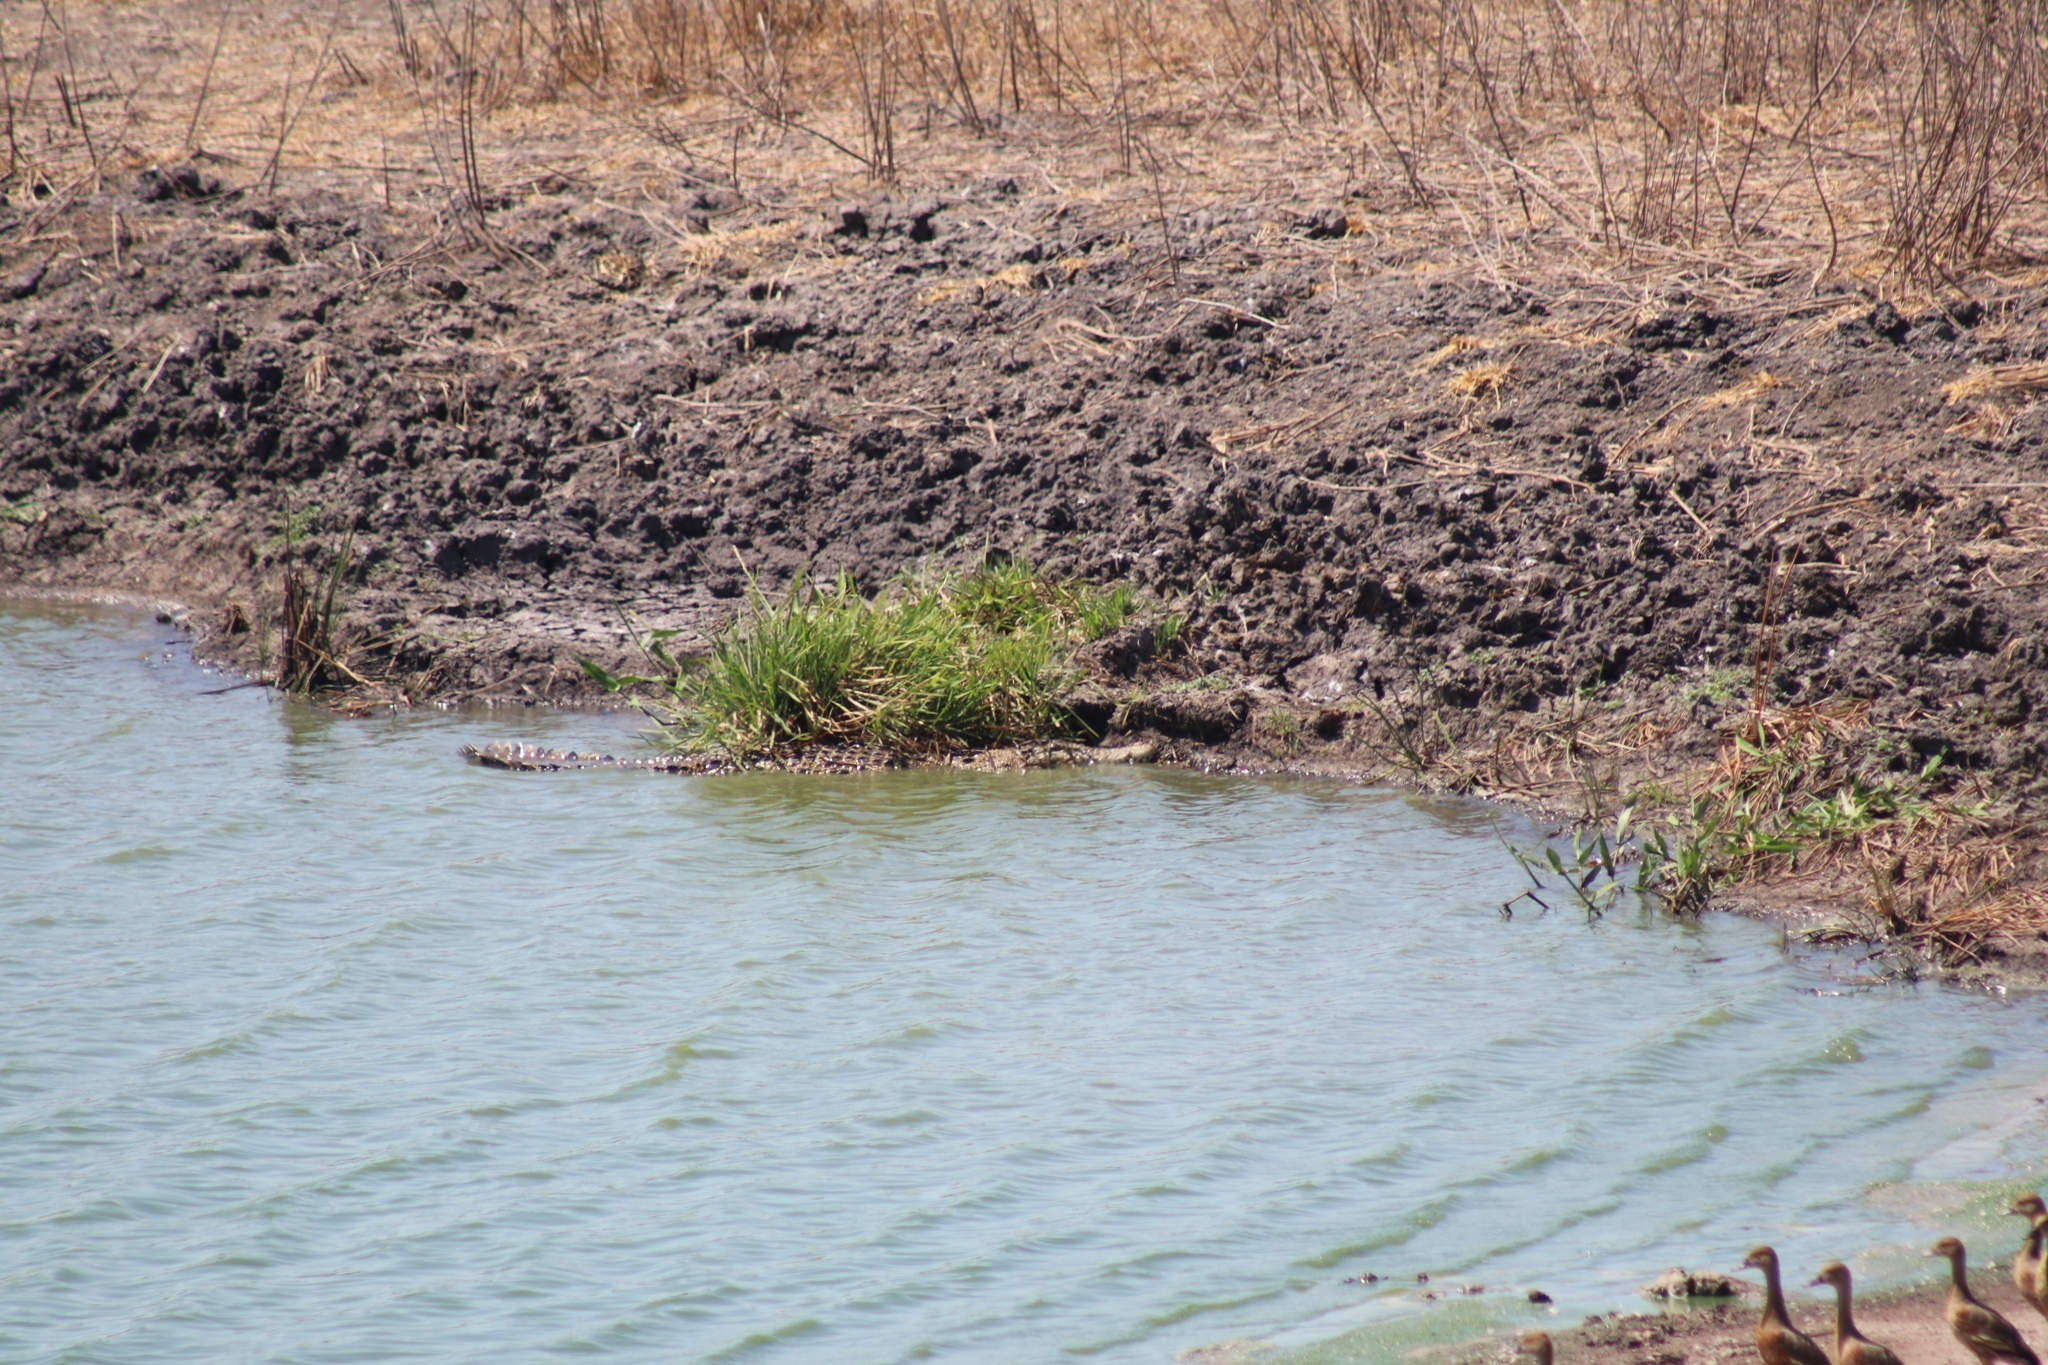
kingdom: Animalia
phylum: Chordata
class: Crocodylia
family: Crocodylidae
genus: Crocodylus
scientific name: Crocodylus porosus
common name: Saltwater crocodile
